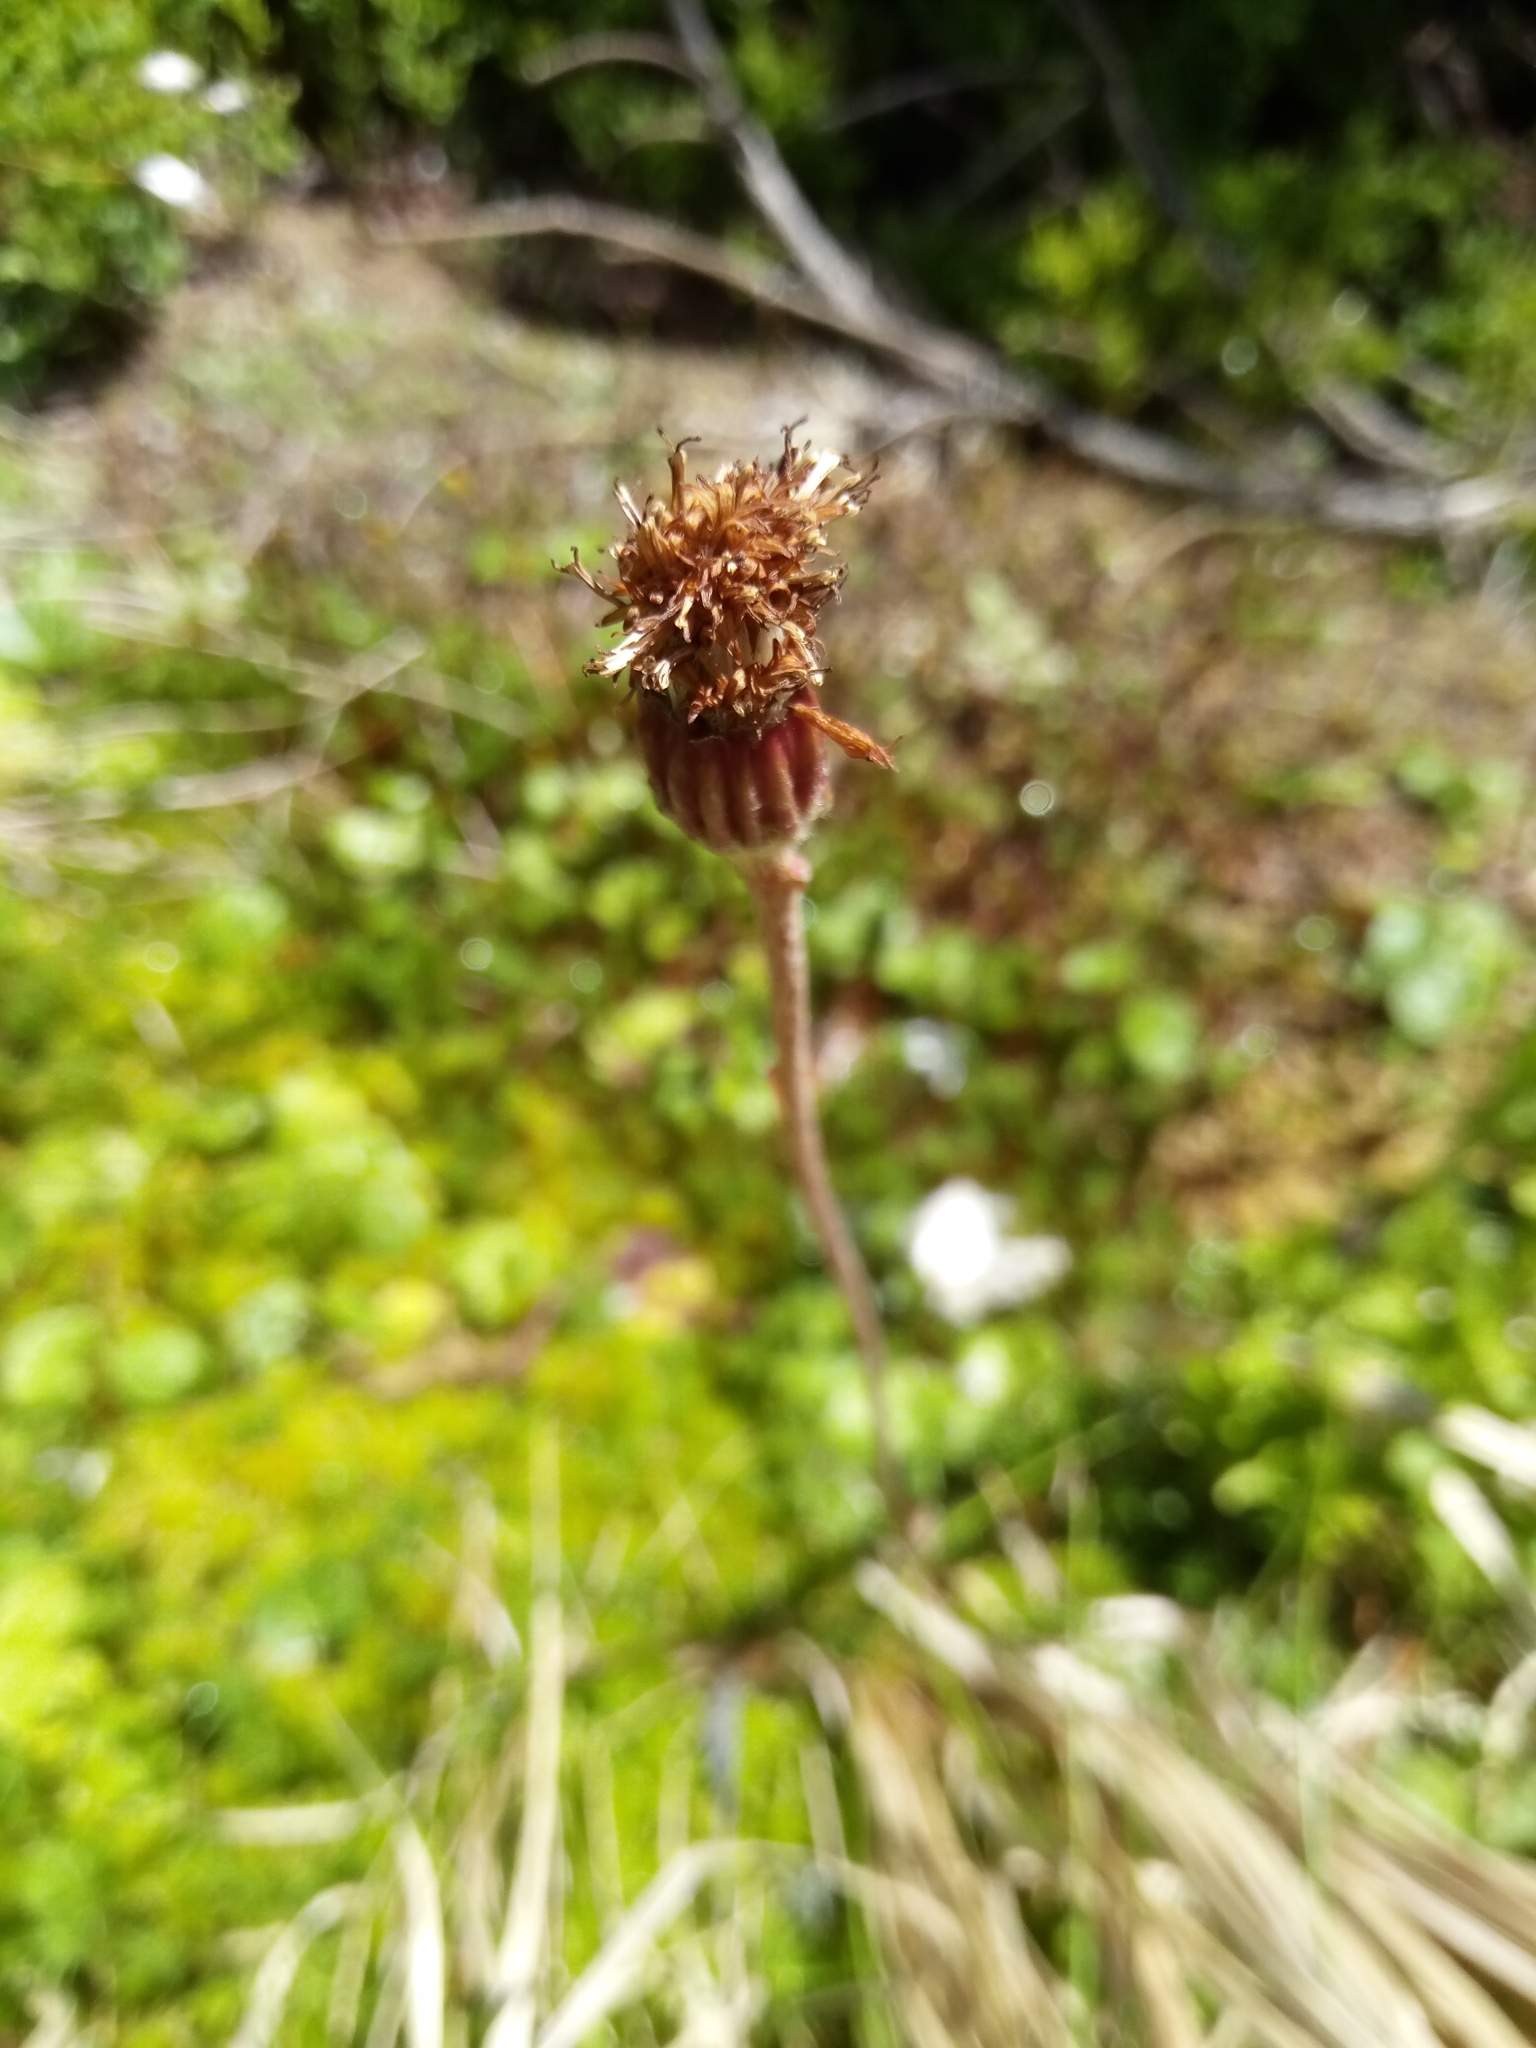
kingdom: Plantae
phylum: Tracheophyta
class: Magnoliopsida
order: Asterales
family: Asteraceae
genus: Homogyne
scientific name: Homogyne alpina
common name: Purple colt's-foot
